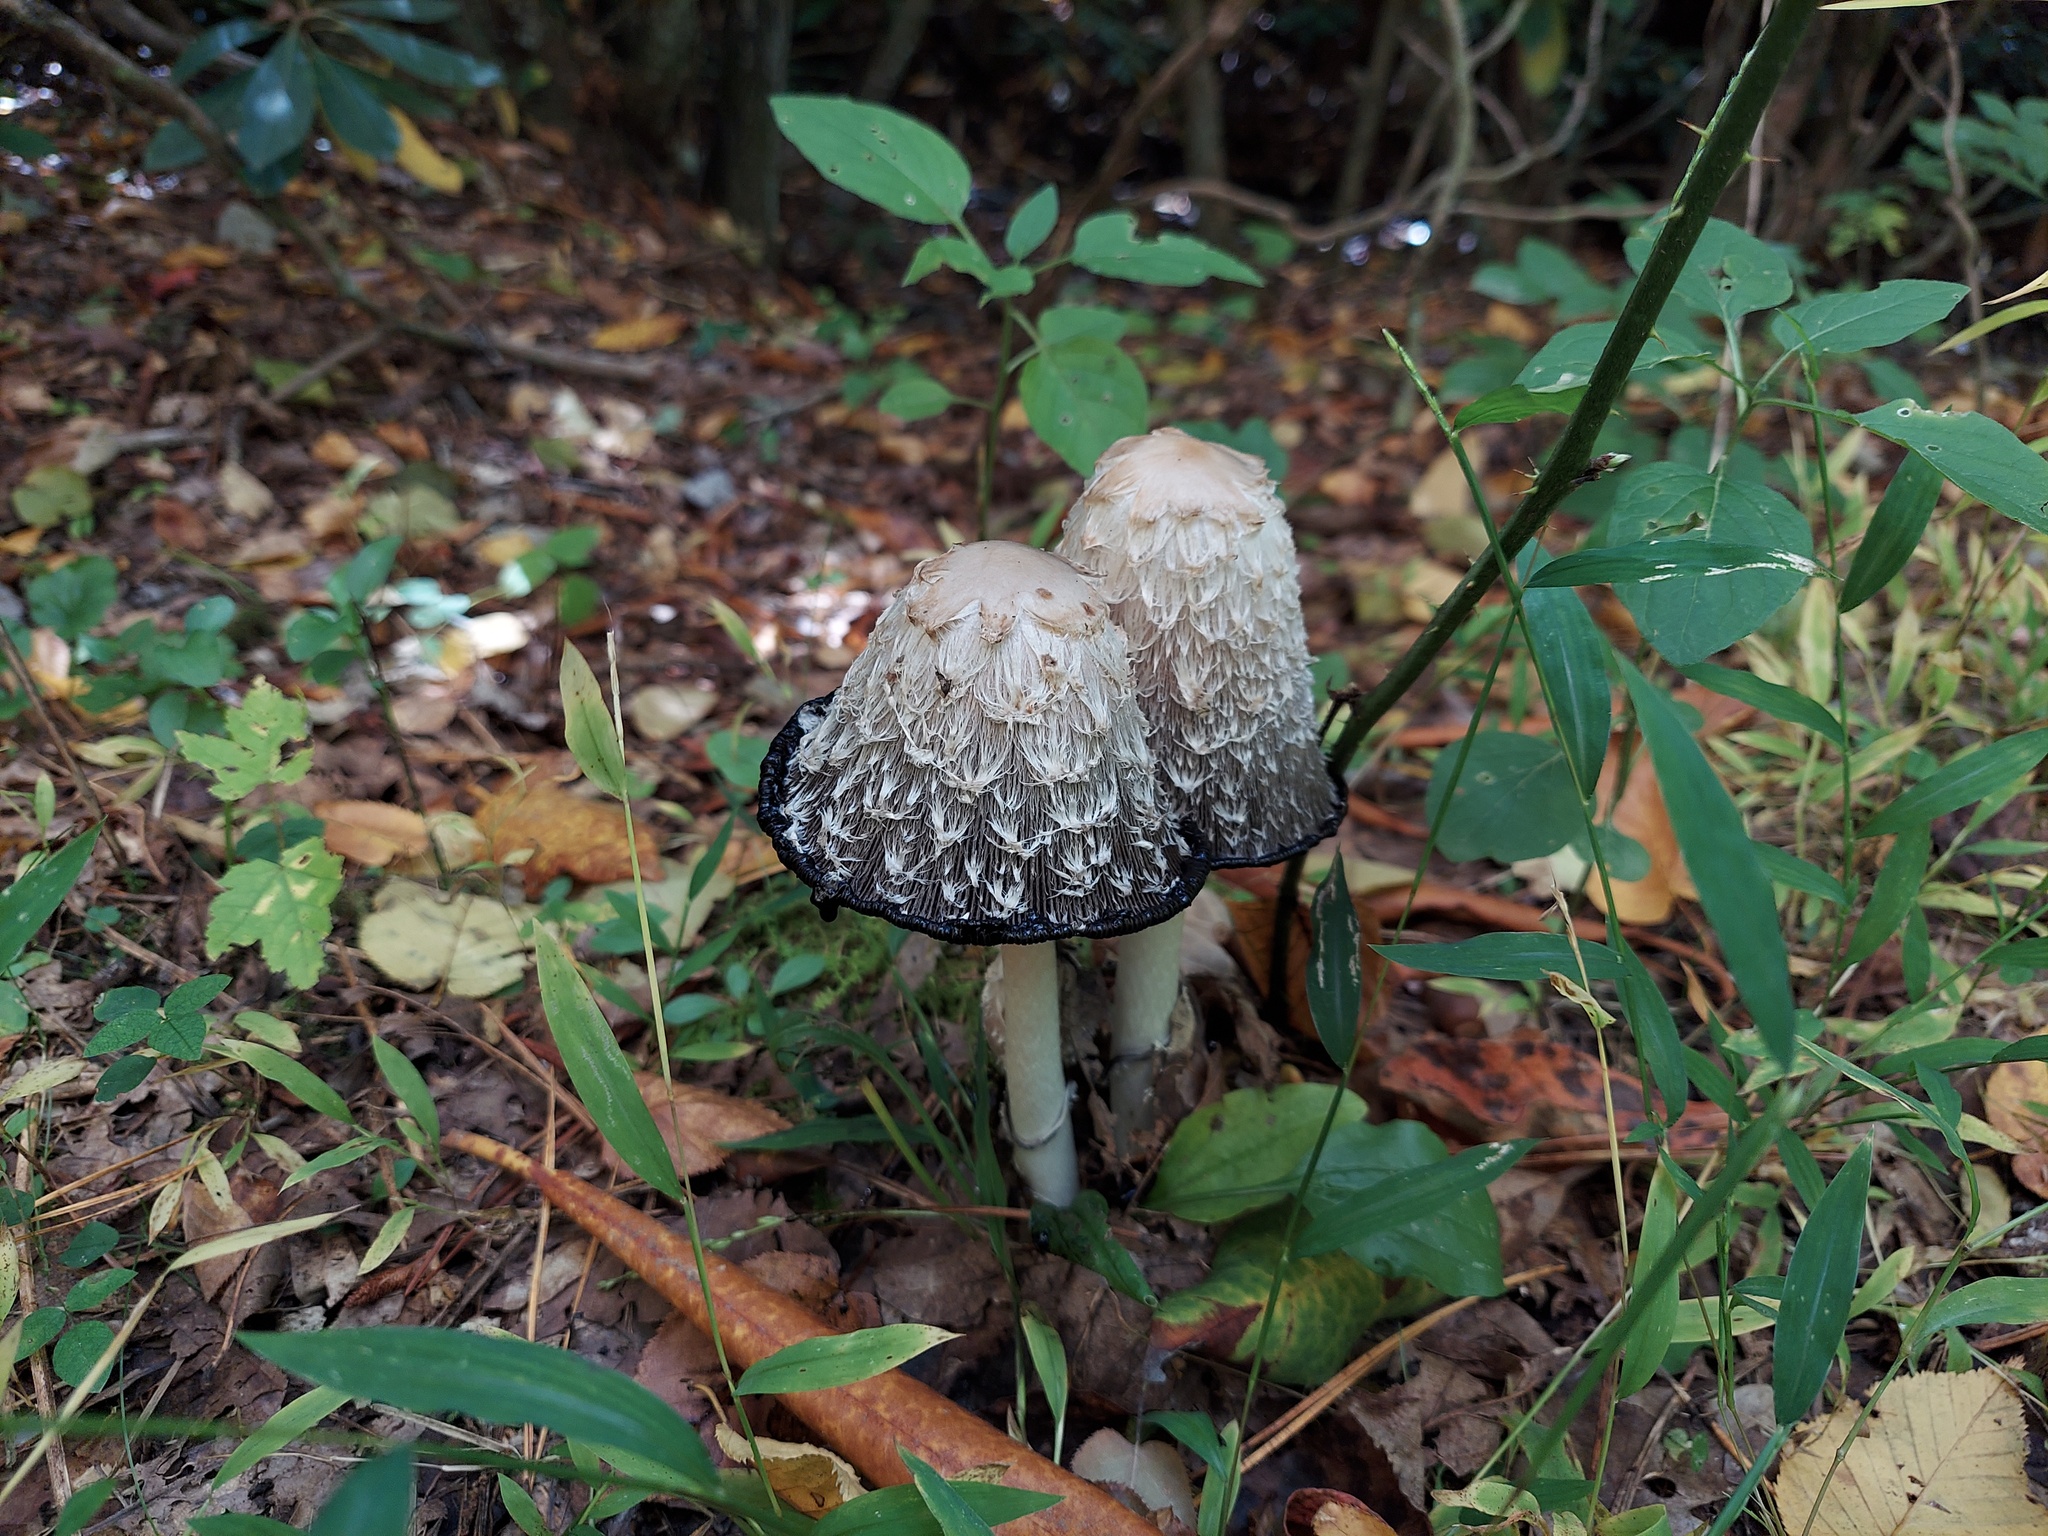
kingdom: Fungi
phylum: Basidiomycota
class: Agaricomycetes
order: Agaricales
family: Agaricaceae
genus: Coprinus
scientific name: Coprinus comatus
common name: Lawyer's wig
